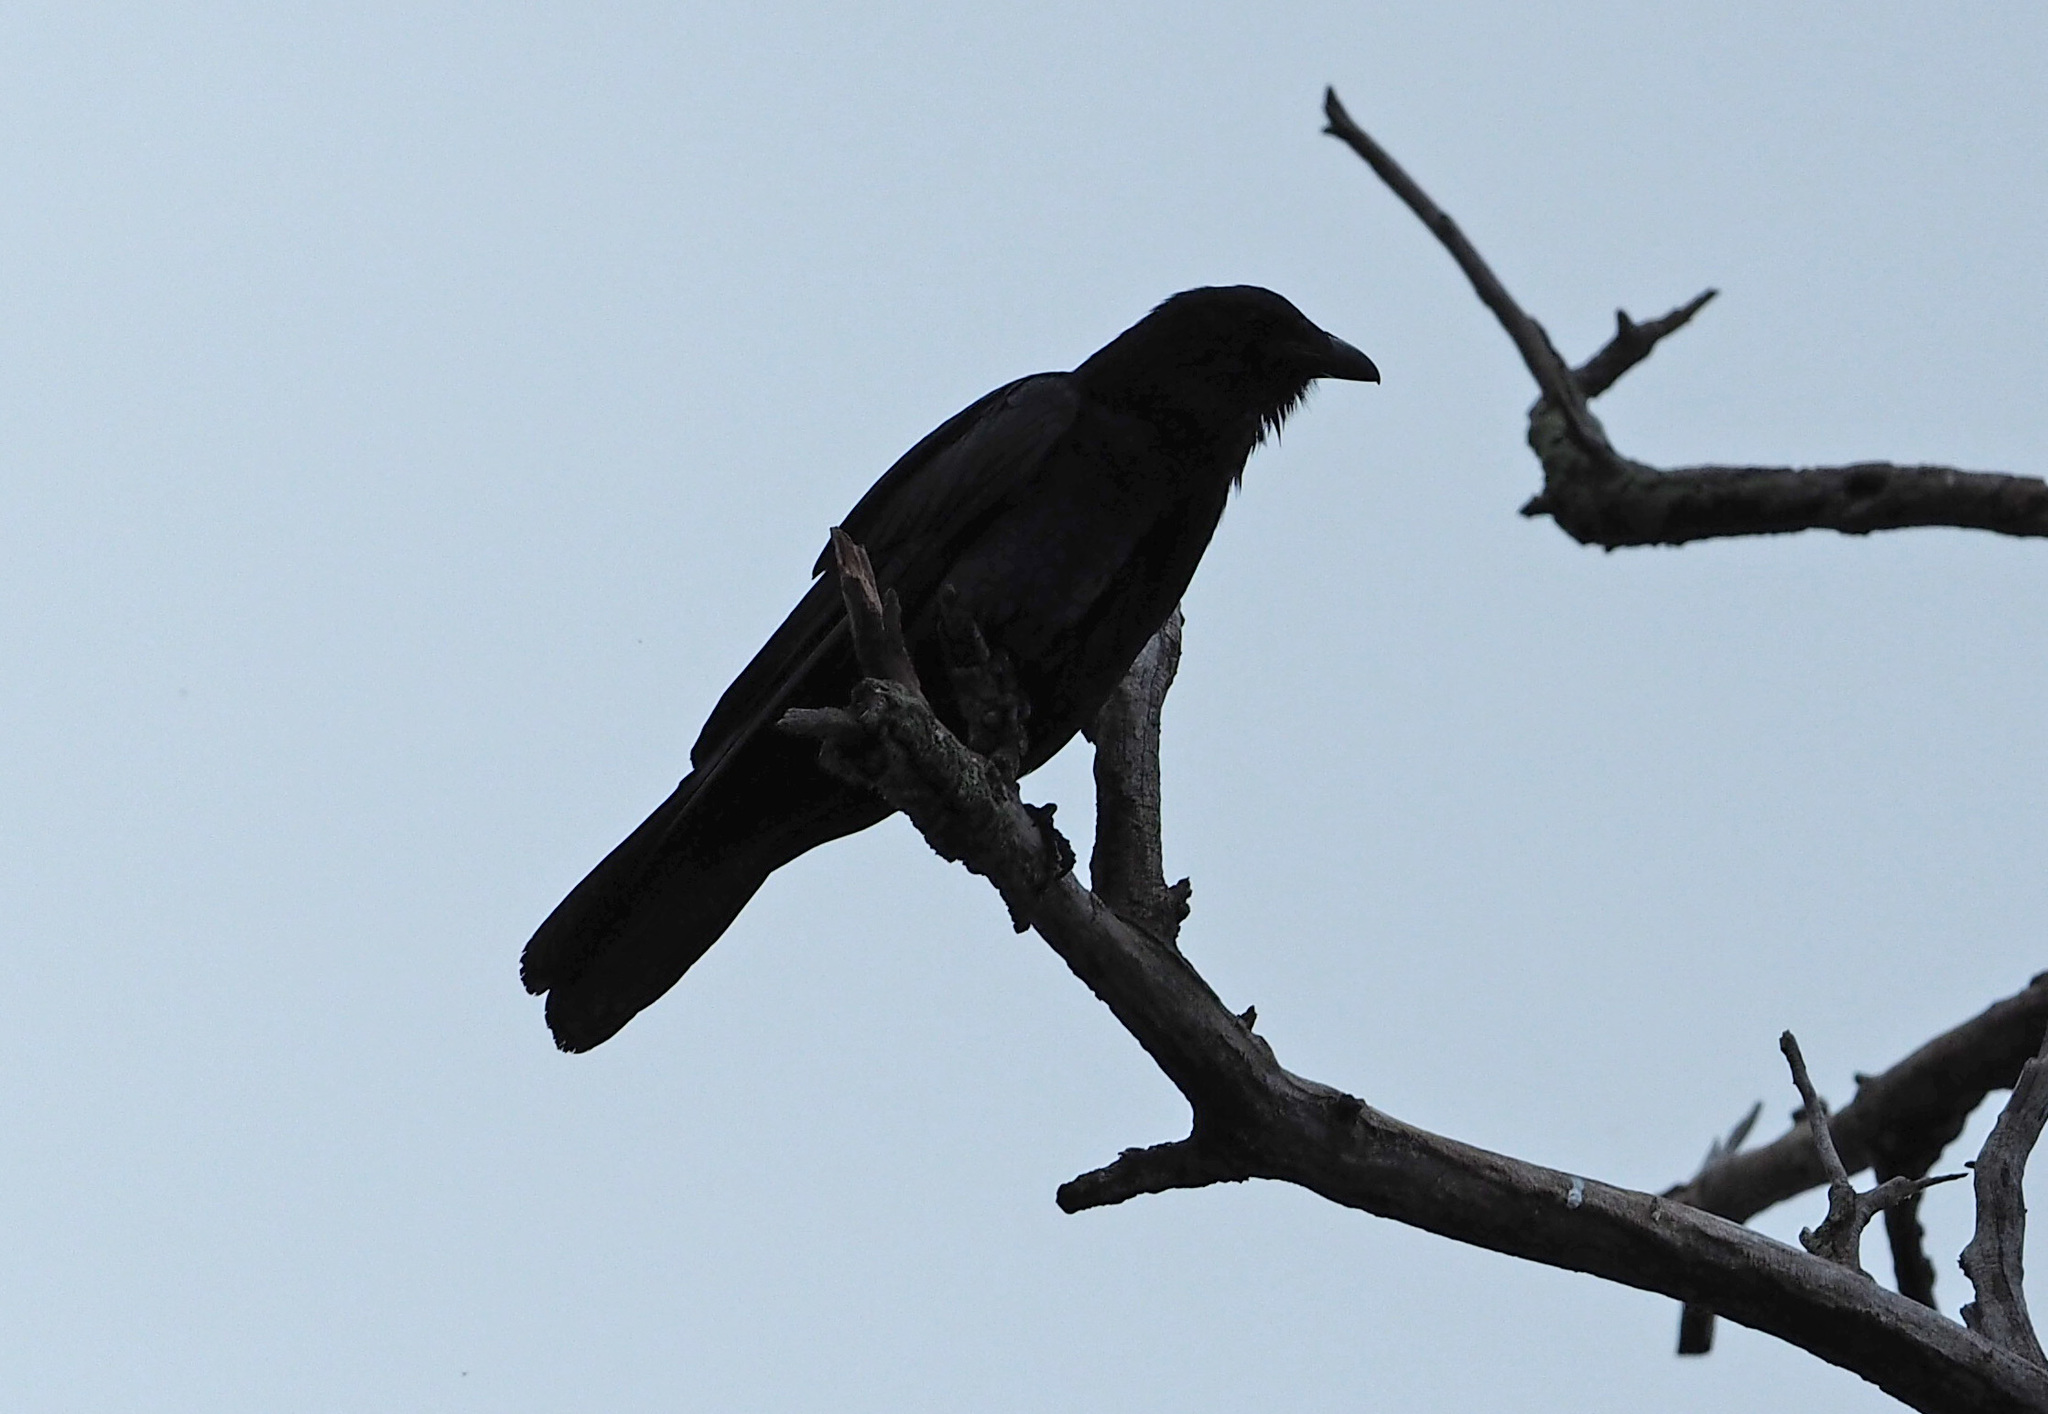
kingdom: Animalia
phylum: Chordata
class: Aves
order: Passeriformes
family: Corvidae
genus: Corvus
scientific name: Corvus brachyrhynchos
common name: American crow
